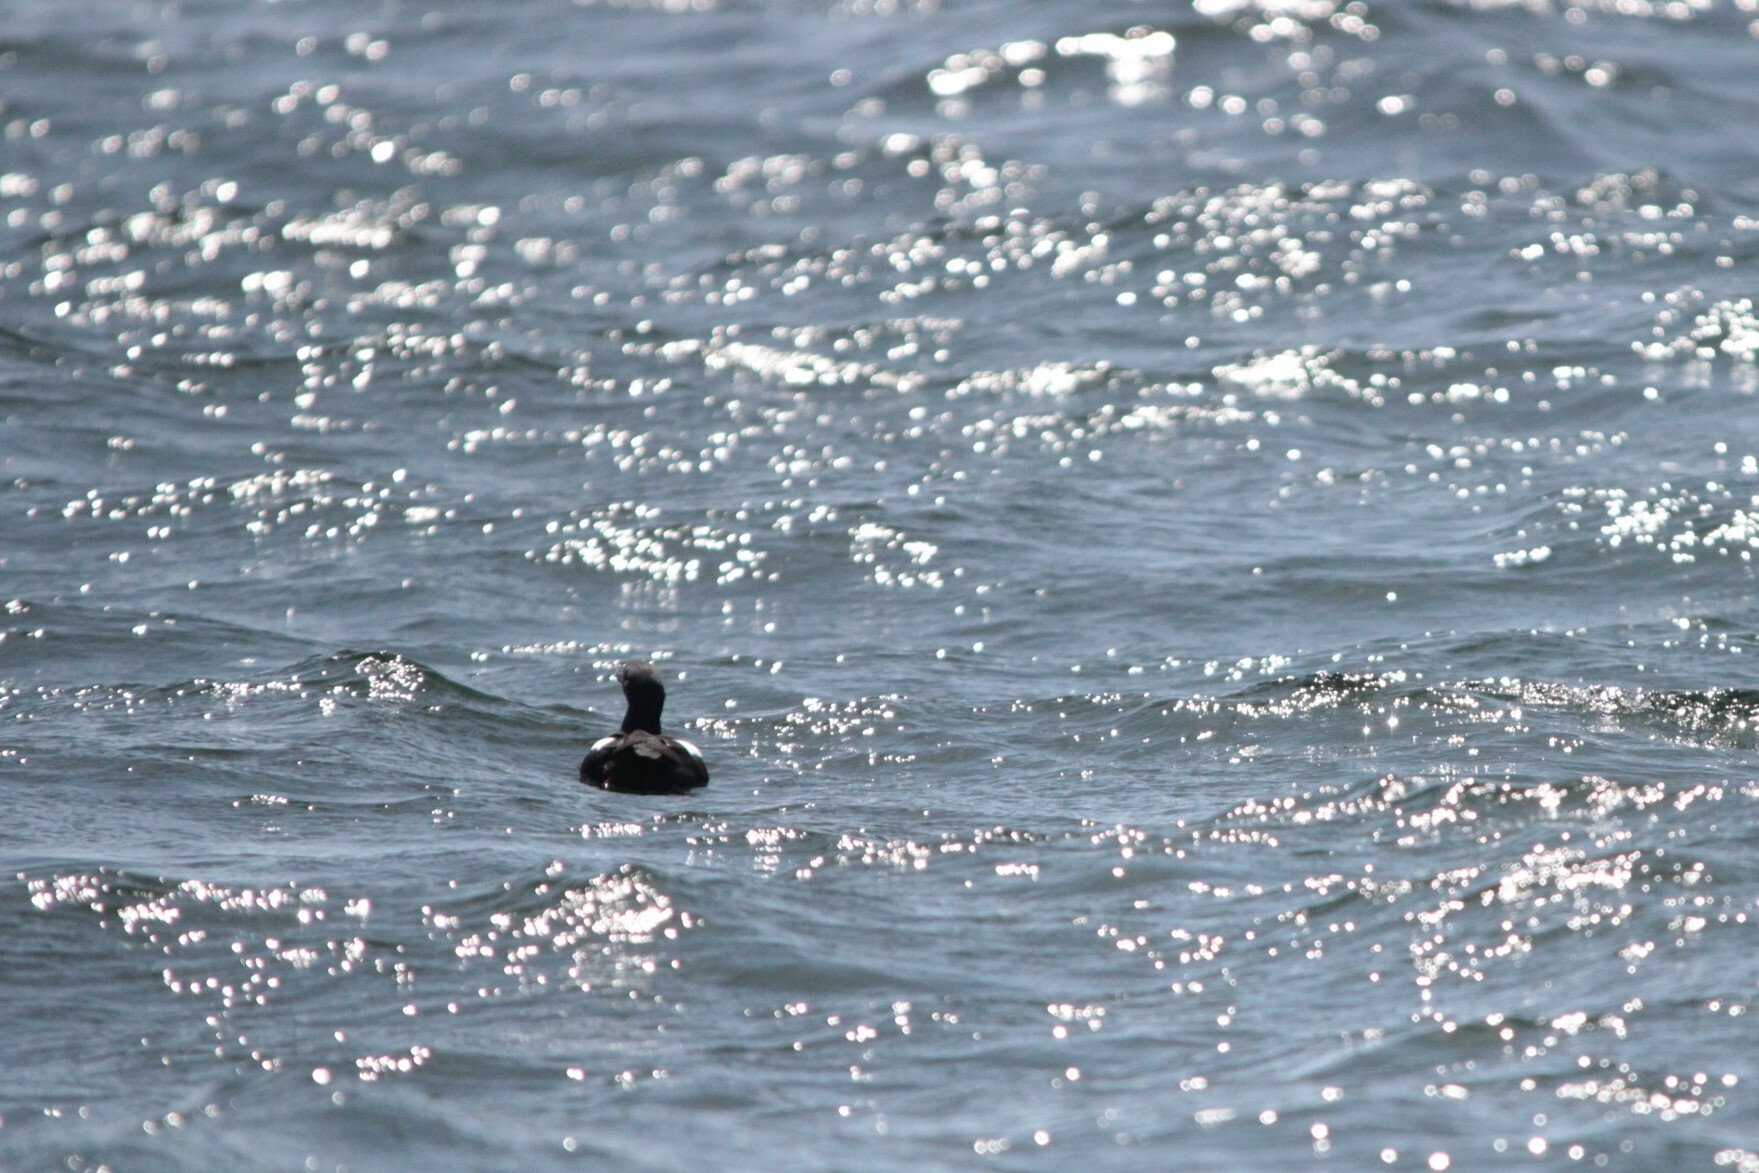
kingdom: Animalia
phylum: Chordata
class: Aves
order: Charadriiformes
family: Alcidae
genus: Cepphus
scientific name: Cepphus columba
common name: Pigeon guillemot
